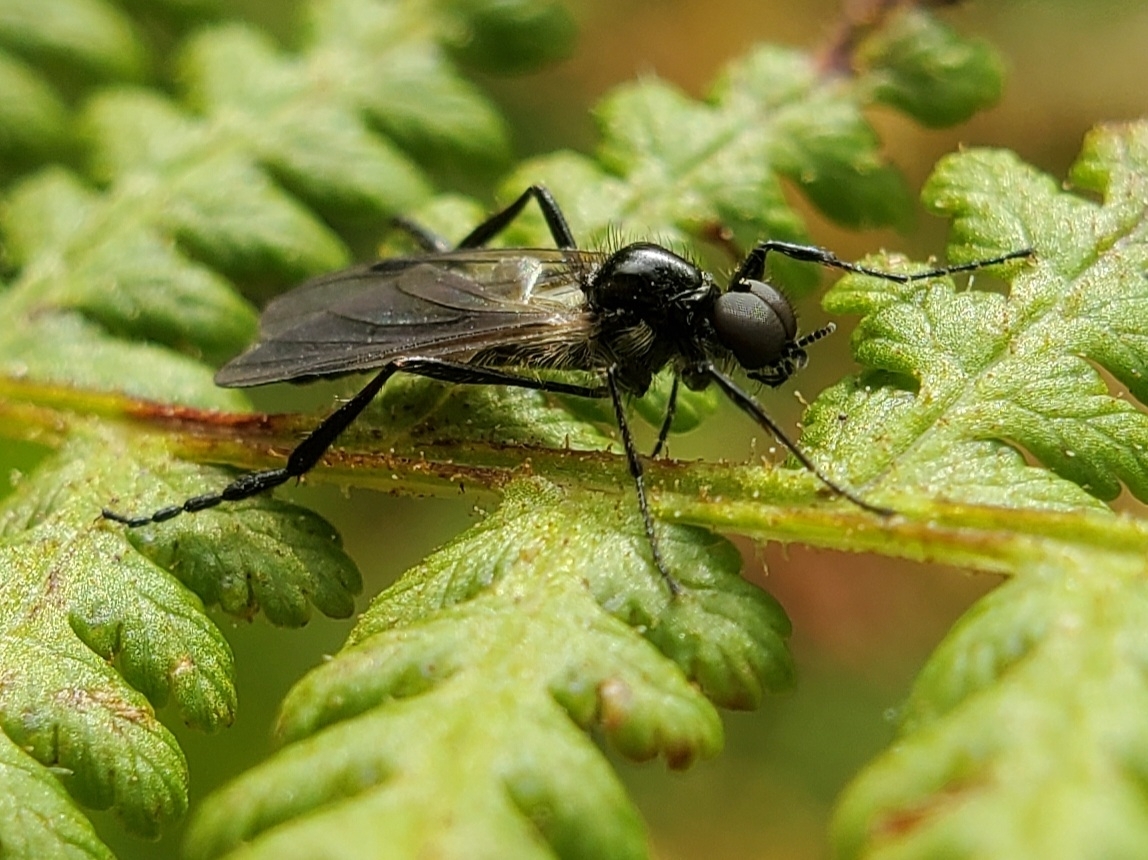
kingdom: Animalia
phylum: Arthropoda
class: Insecta
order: Diptera
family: Bibionidae
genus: Bibio
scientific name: Bibio slossonae
